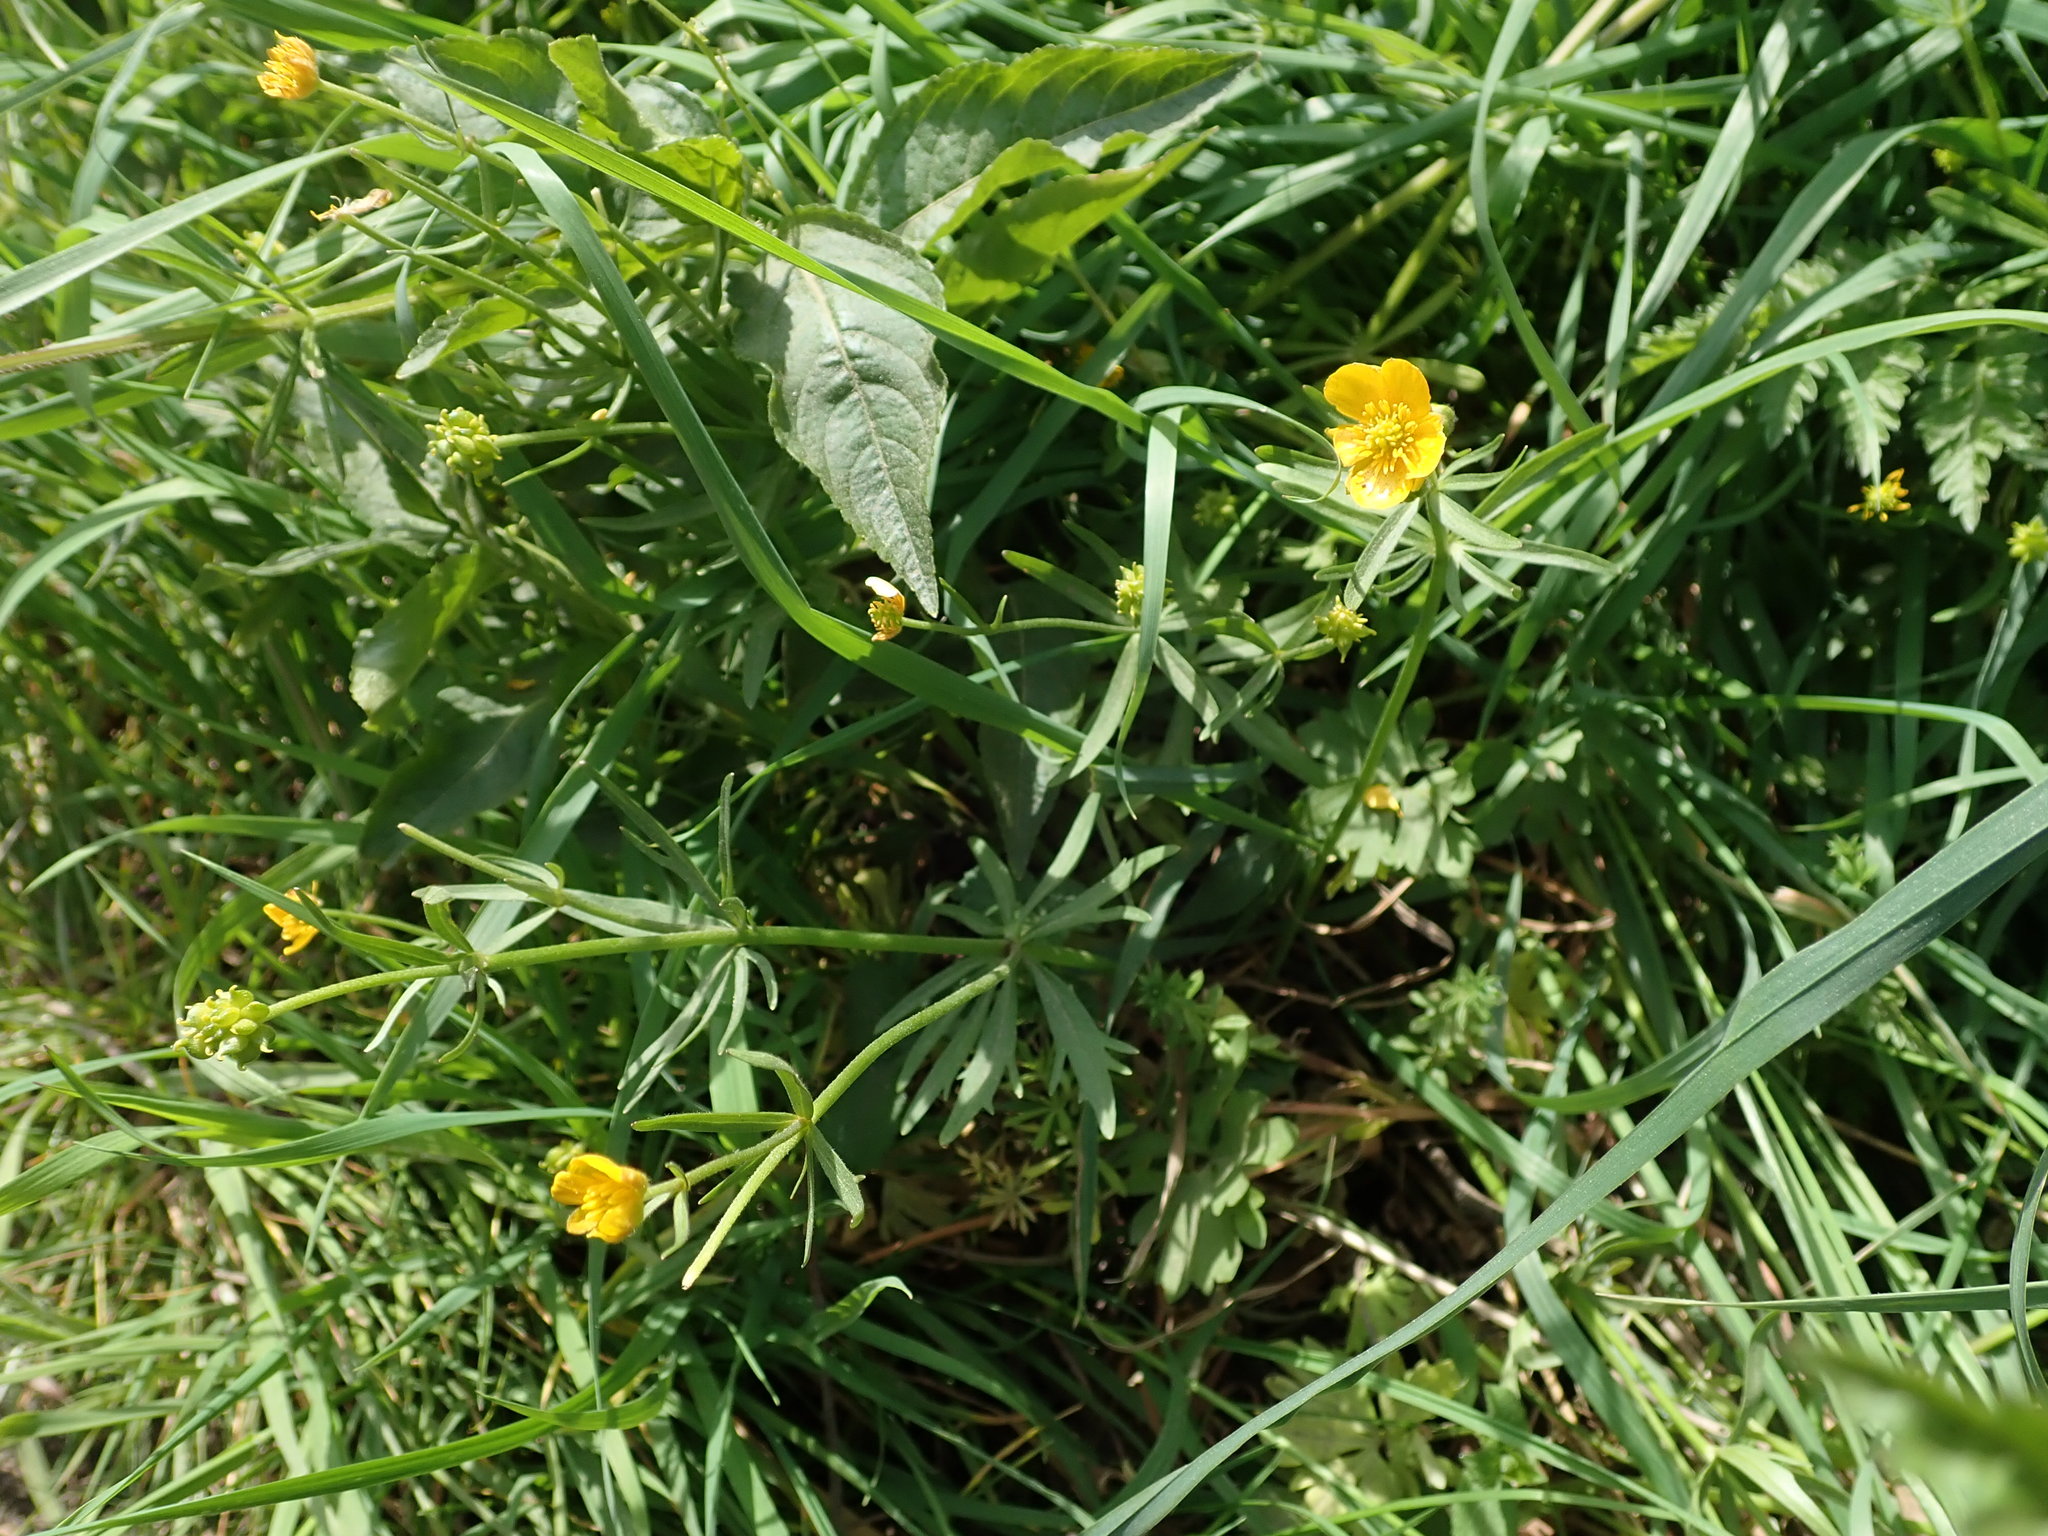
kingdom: Plantae
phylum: Tracheophyta
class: Magnoliopsida
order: Ranunculales
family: Ranunculaceae
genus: Ranunculus
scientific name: Ranunculus auricomus
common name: Goldilocks buttercup
